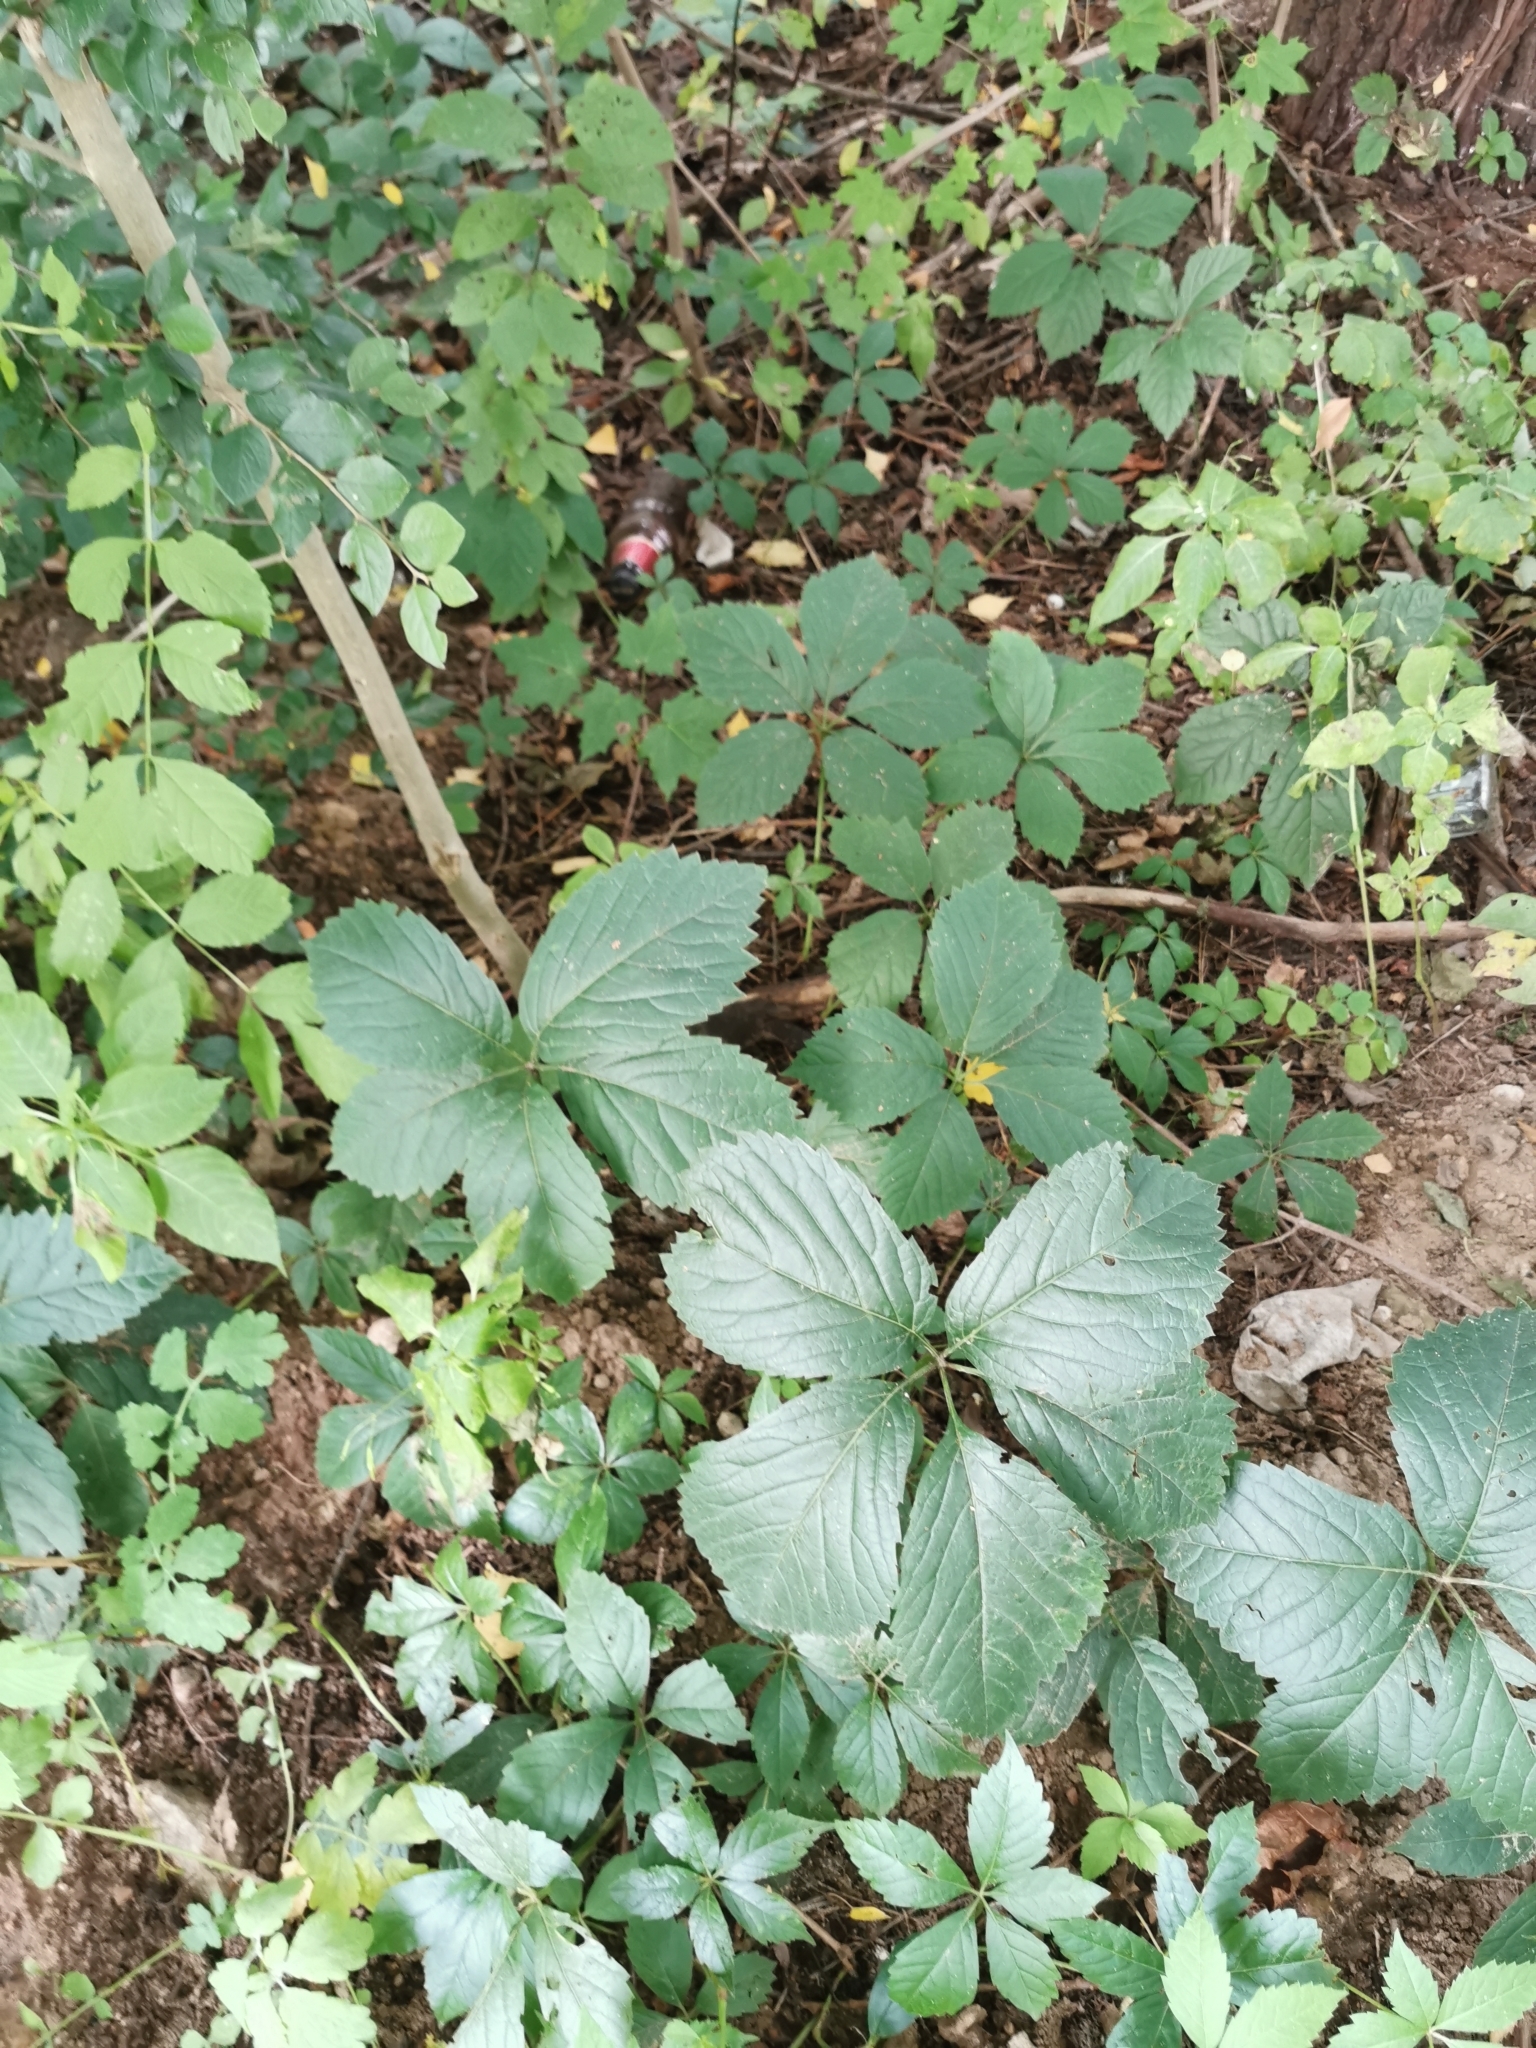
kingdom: Plantae
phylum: Tracheophyta
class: Magnoliopsida
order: Vitales
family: Vitaceae
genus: Parthenocissus
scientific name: Parthenocissus inserta
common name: False virginia-creeper
